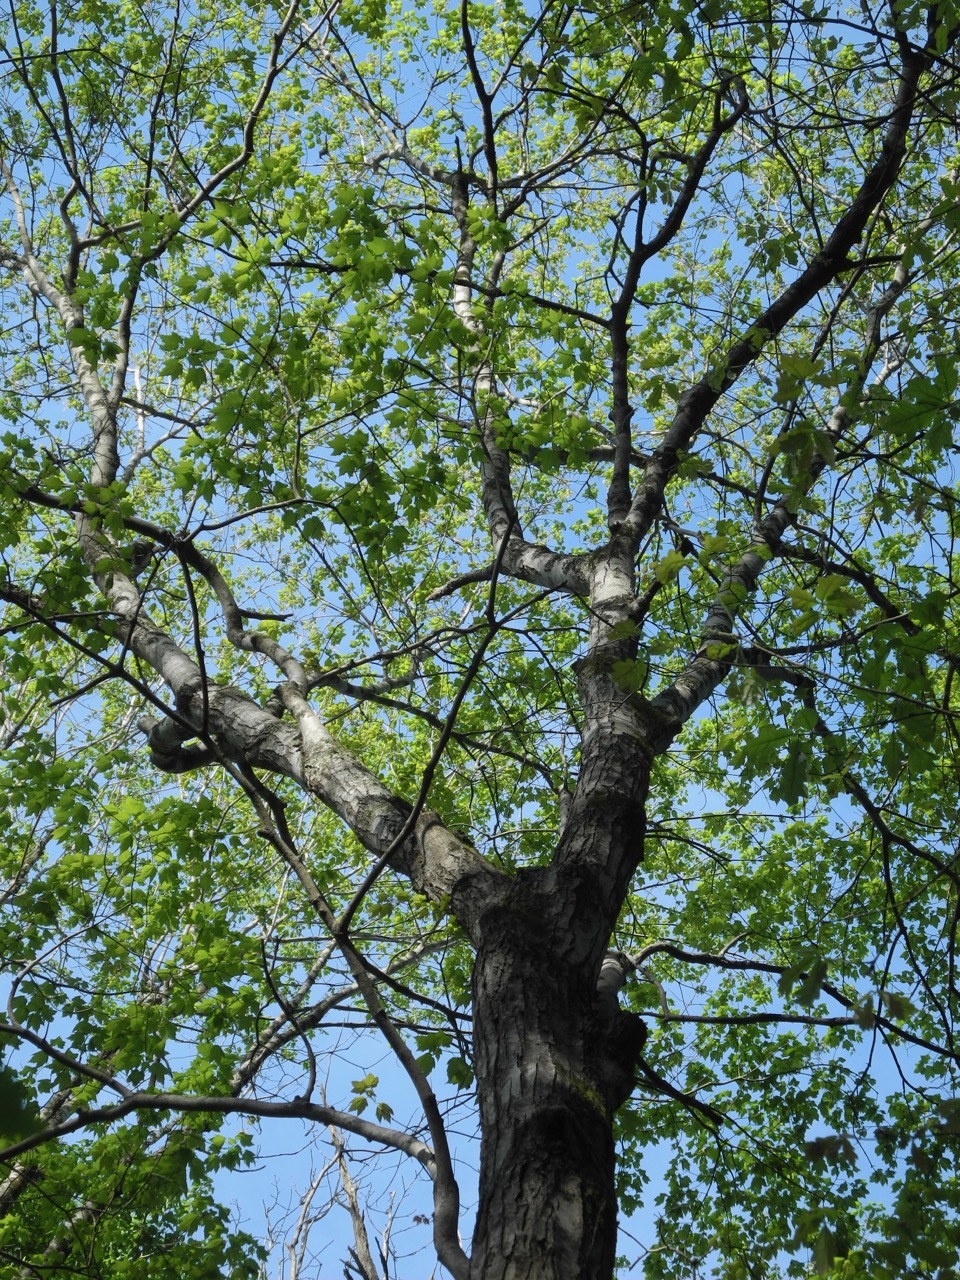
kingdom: Plantae
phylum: Tracheophyta
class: Magnoliopsida
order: Sapindales
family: Sapindaceae
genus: Acer
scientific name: Acer rubrum
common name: Red maple
